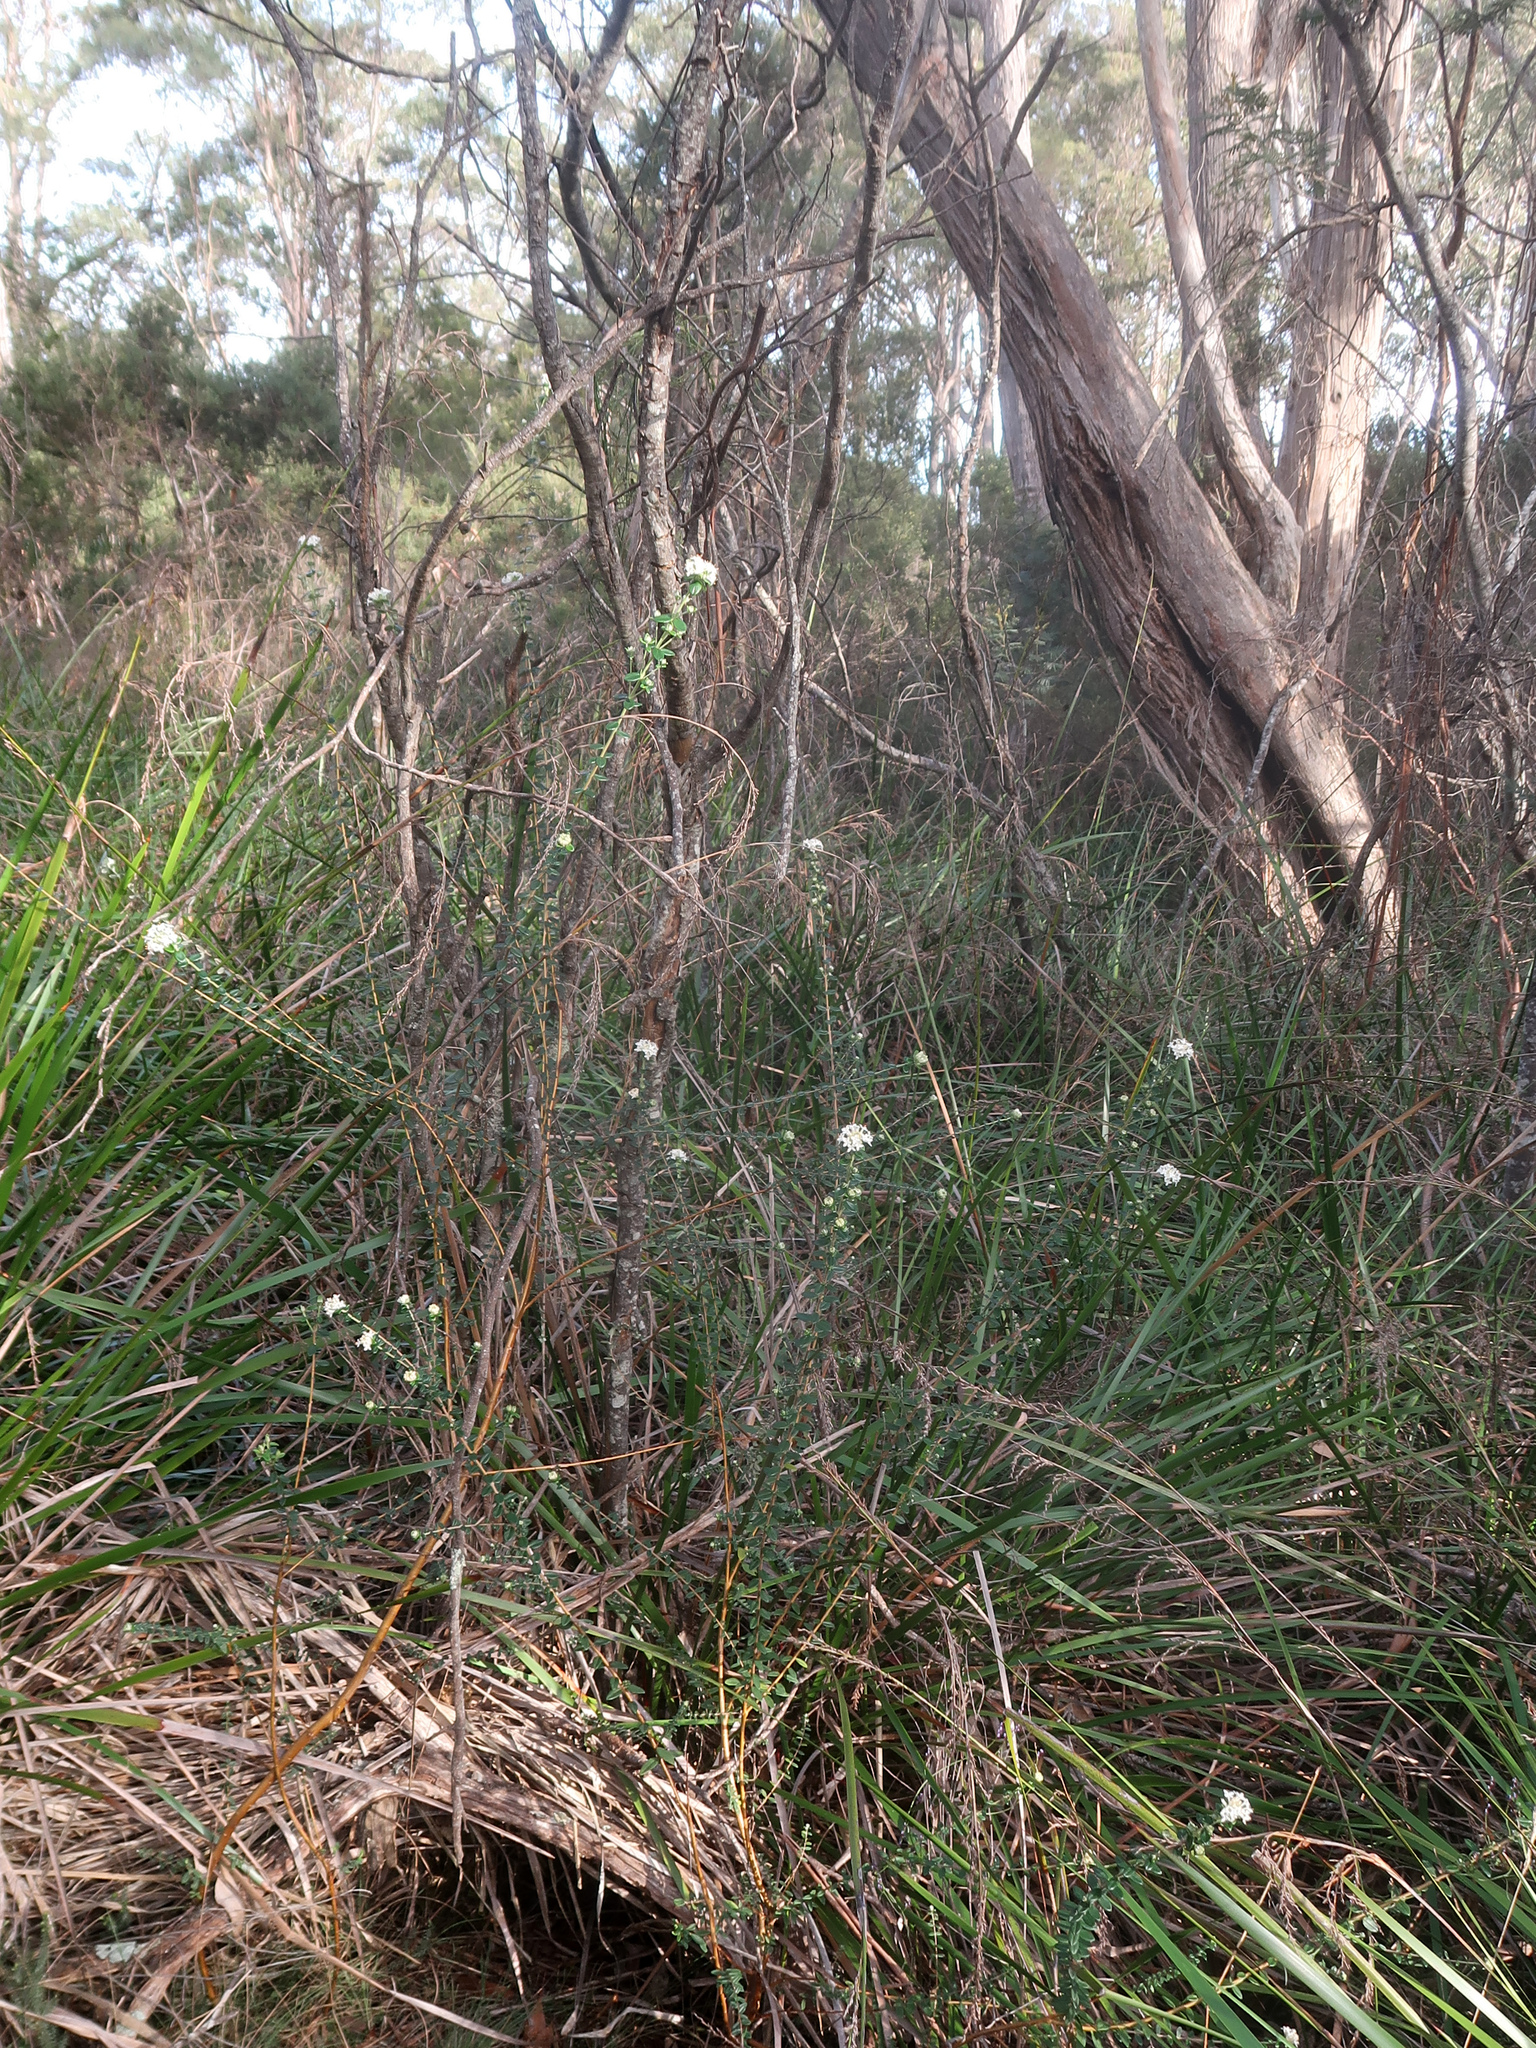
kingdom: Plantae
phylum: Tracheophyta
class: Magnoliopsida
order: Malvales
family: Thymelaeaceae
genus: Pimelea
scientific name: Pimelea nivea
